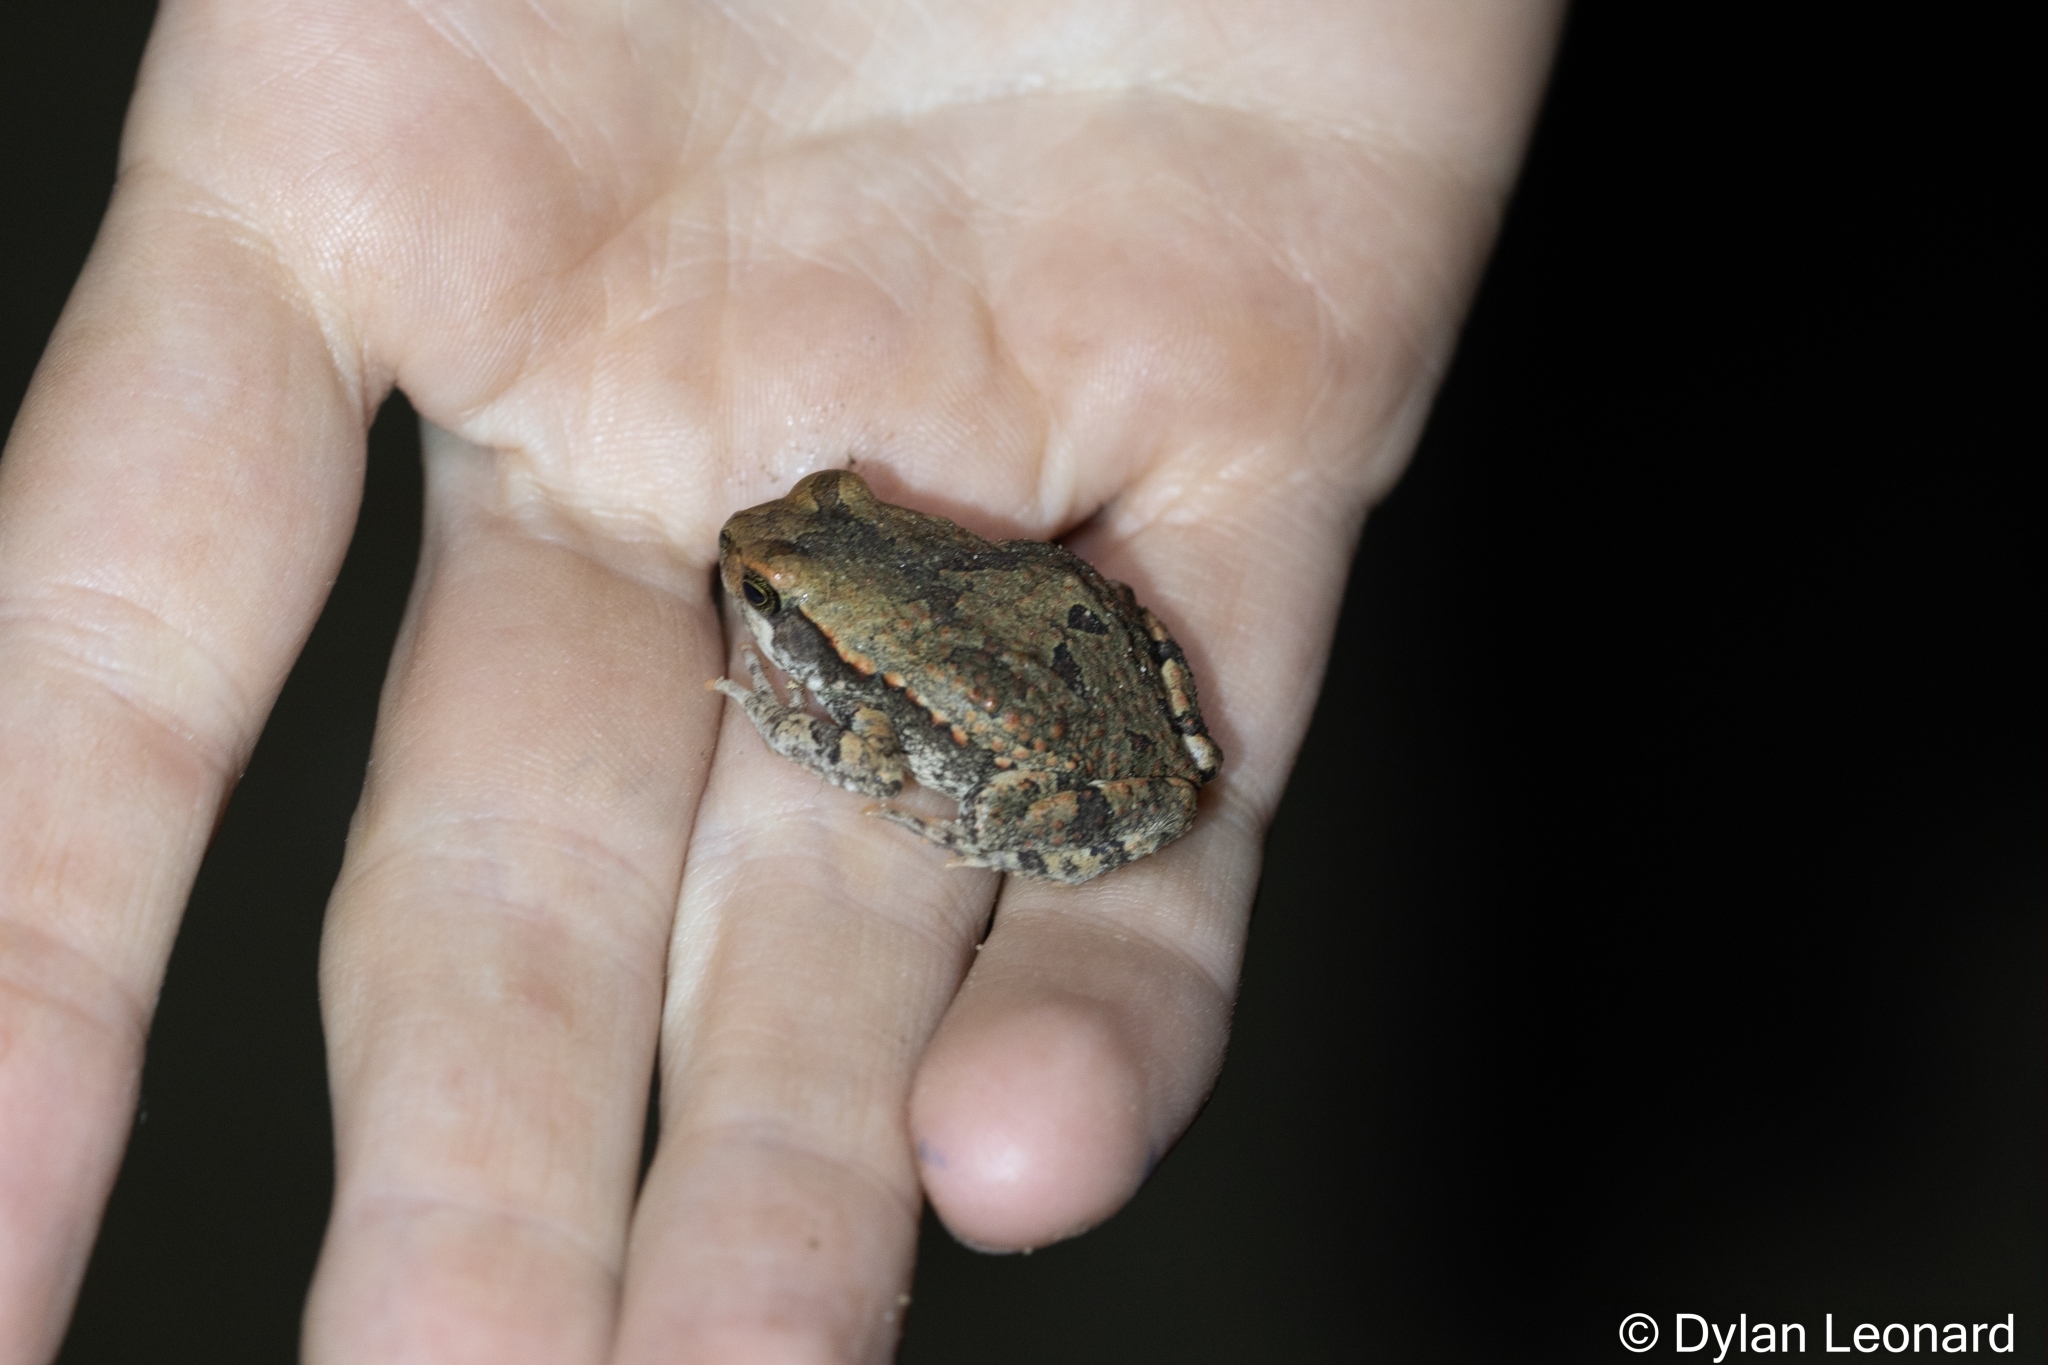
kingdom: Animalia
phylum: Chordata
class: Amphibia
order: Anura
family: Bufonidae
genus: Schismaderma
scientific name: Schismaderma carens
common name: African split-skin toad
